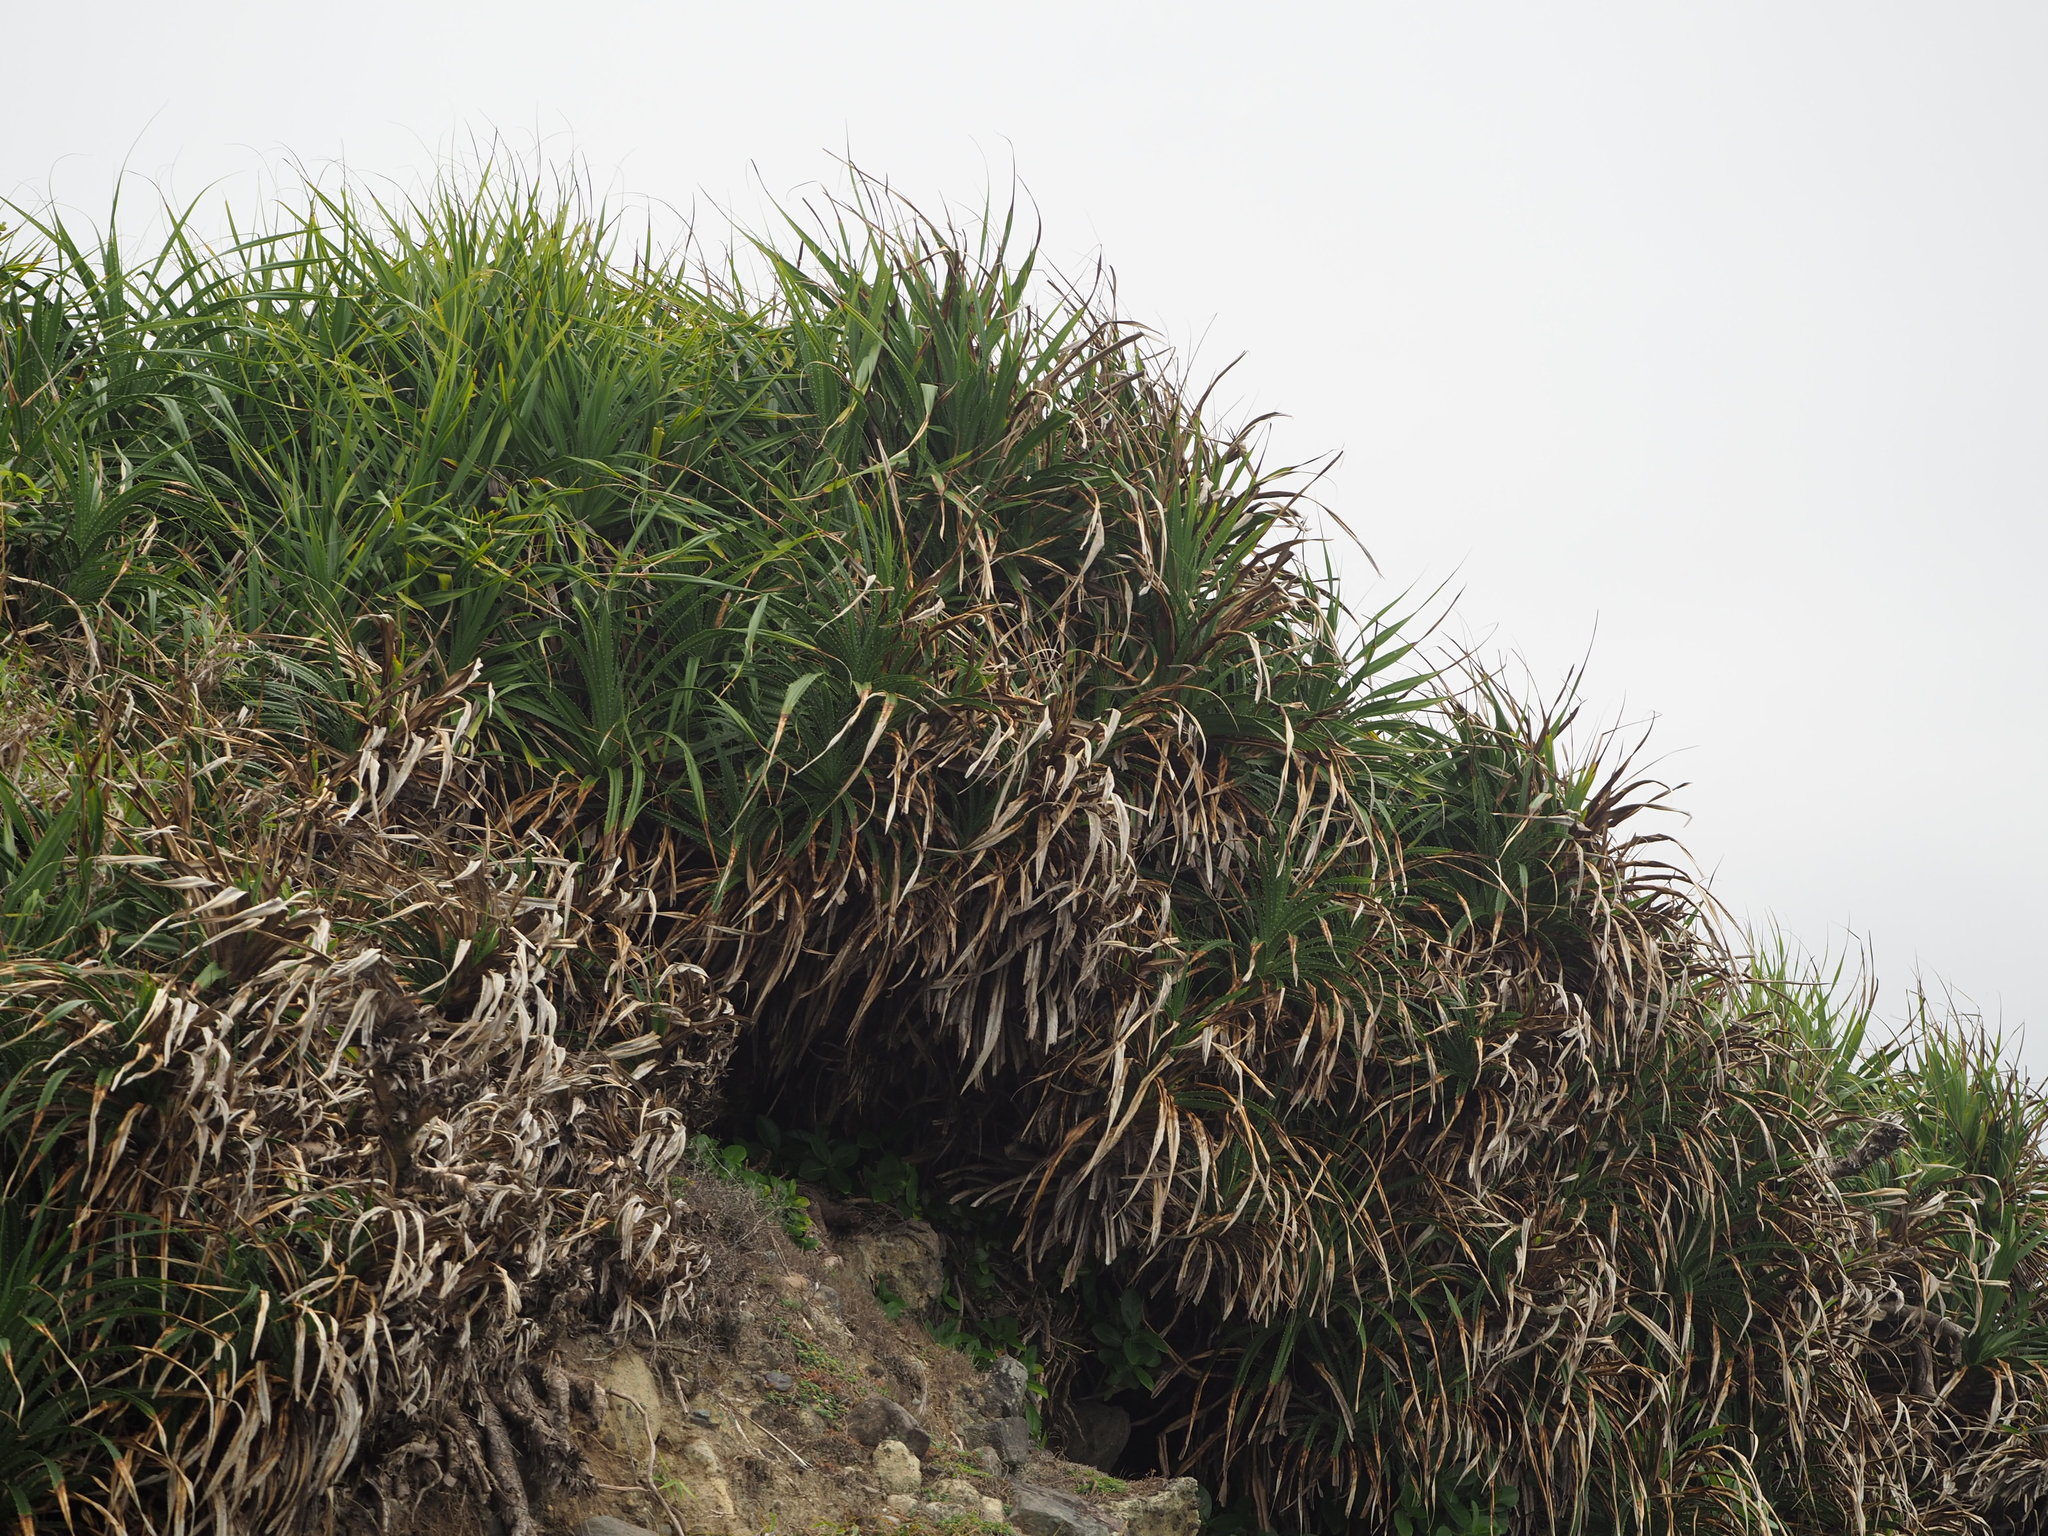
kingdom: Plantae
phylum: Tracheophyta
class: Liliopsida
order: Pandanales
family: Pandanaceae
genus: Pandanus
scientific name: Pandanus odorifer
